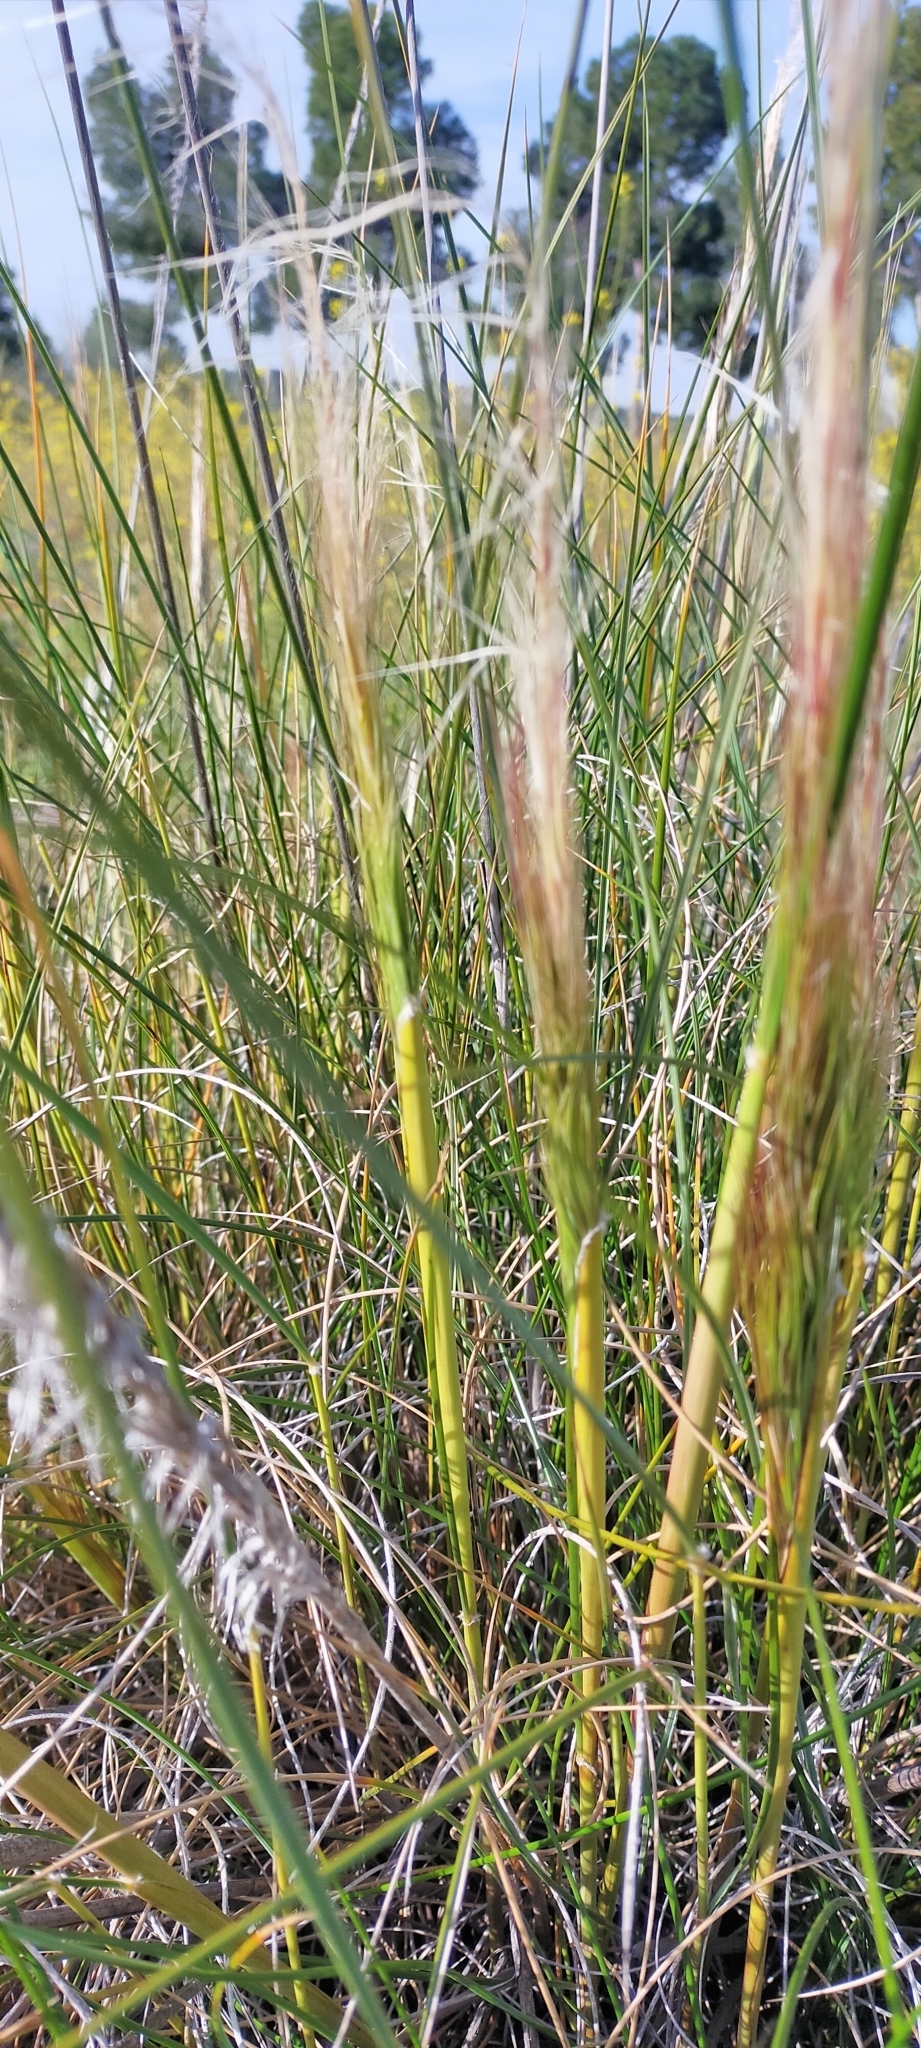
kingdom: Plantae
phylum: Tracheophyta
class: Liliopsida
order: Poales
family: Poaceae
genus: Macrochloa
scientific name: Macrochloa tenacissima
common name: Alfa grass
